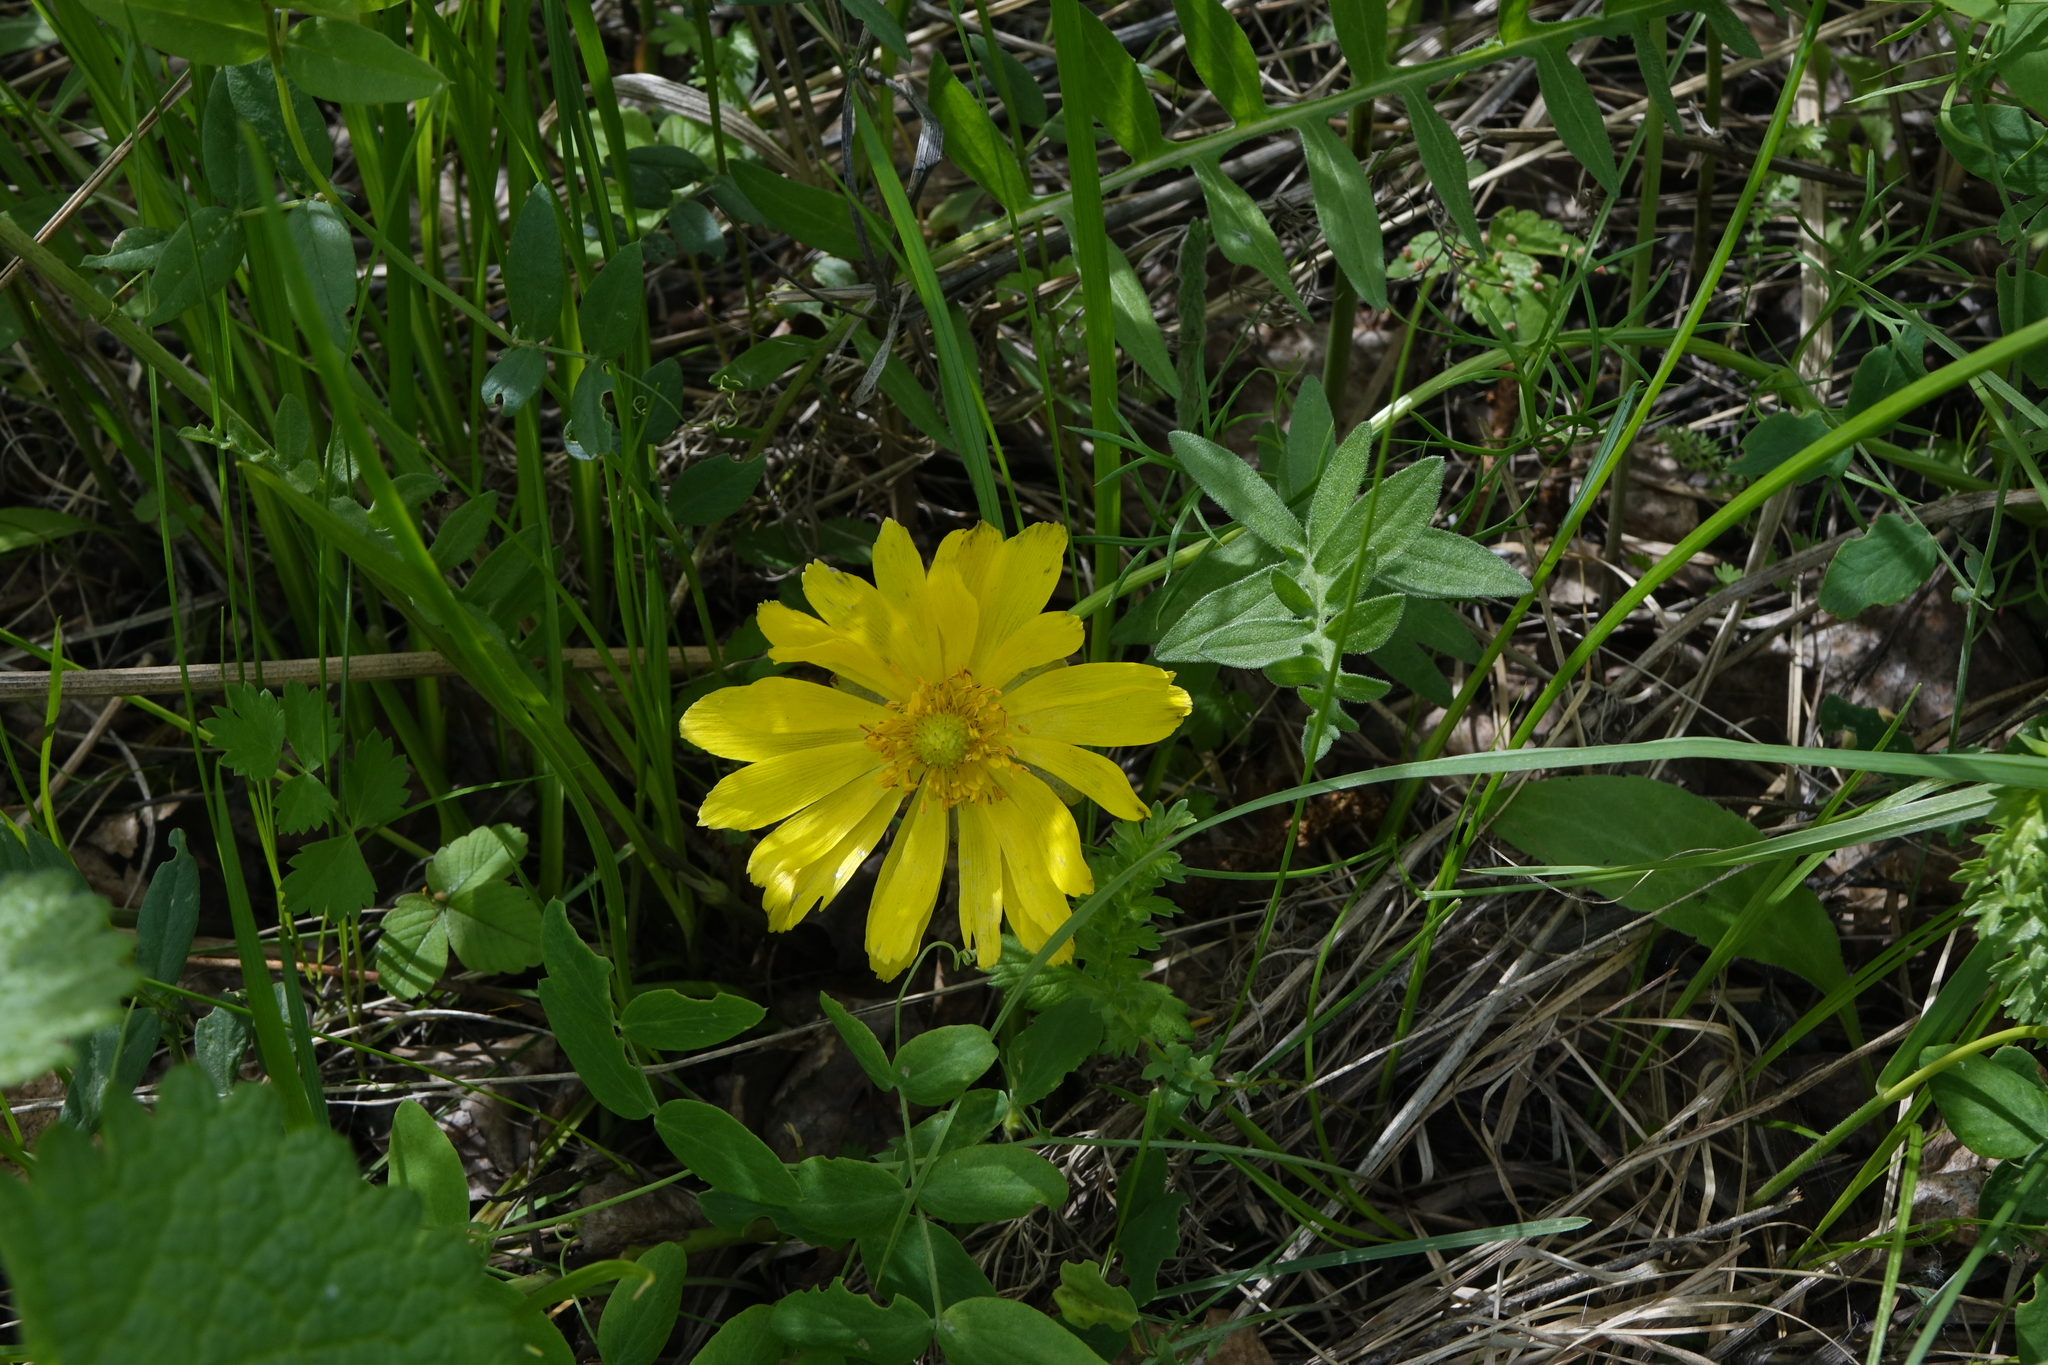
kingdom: Plantae
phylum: Tracheophyta
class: Magnoliopsida
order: Ranunculales
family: Ranunculaceae
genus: Adonis
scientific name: Adonis vernalis
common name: Yellow pheasants-eye
